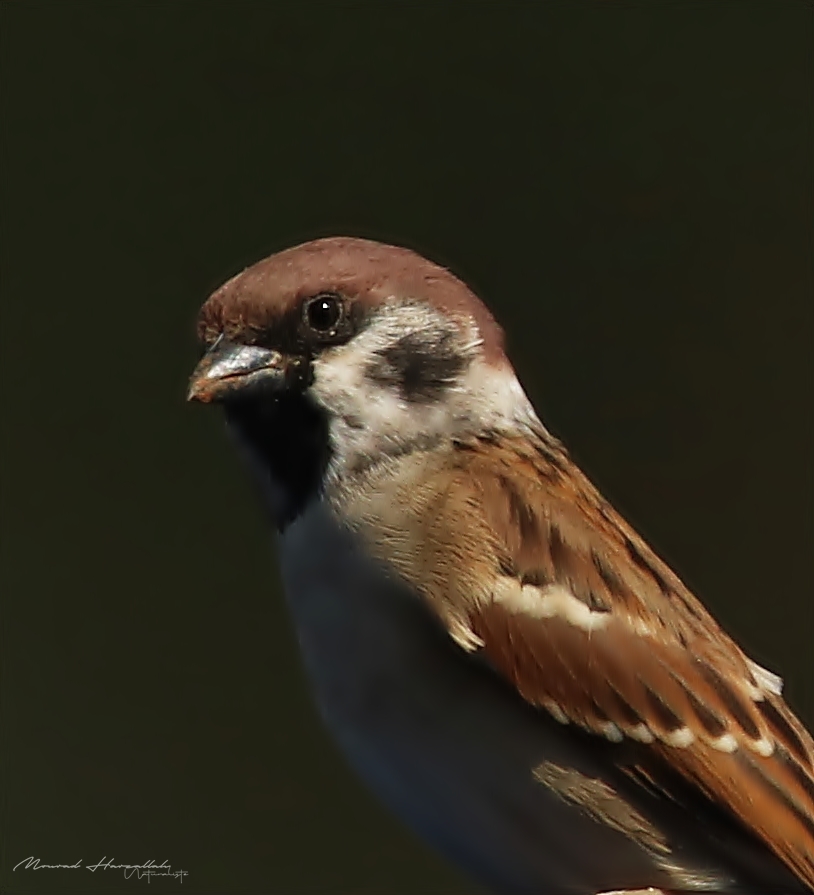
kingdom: Animalia
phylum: Chordata
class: Aves
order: Passeriformes
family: Passeridae
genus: Passer
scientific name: Passer montanus
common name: Eurasian tree sparrow
